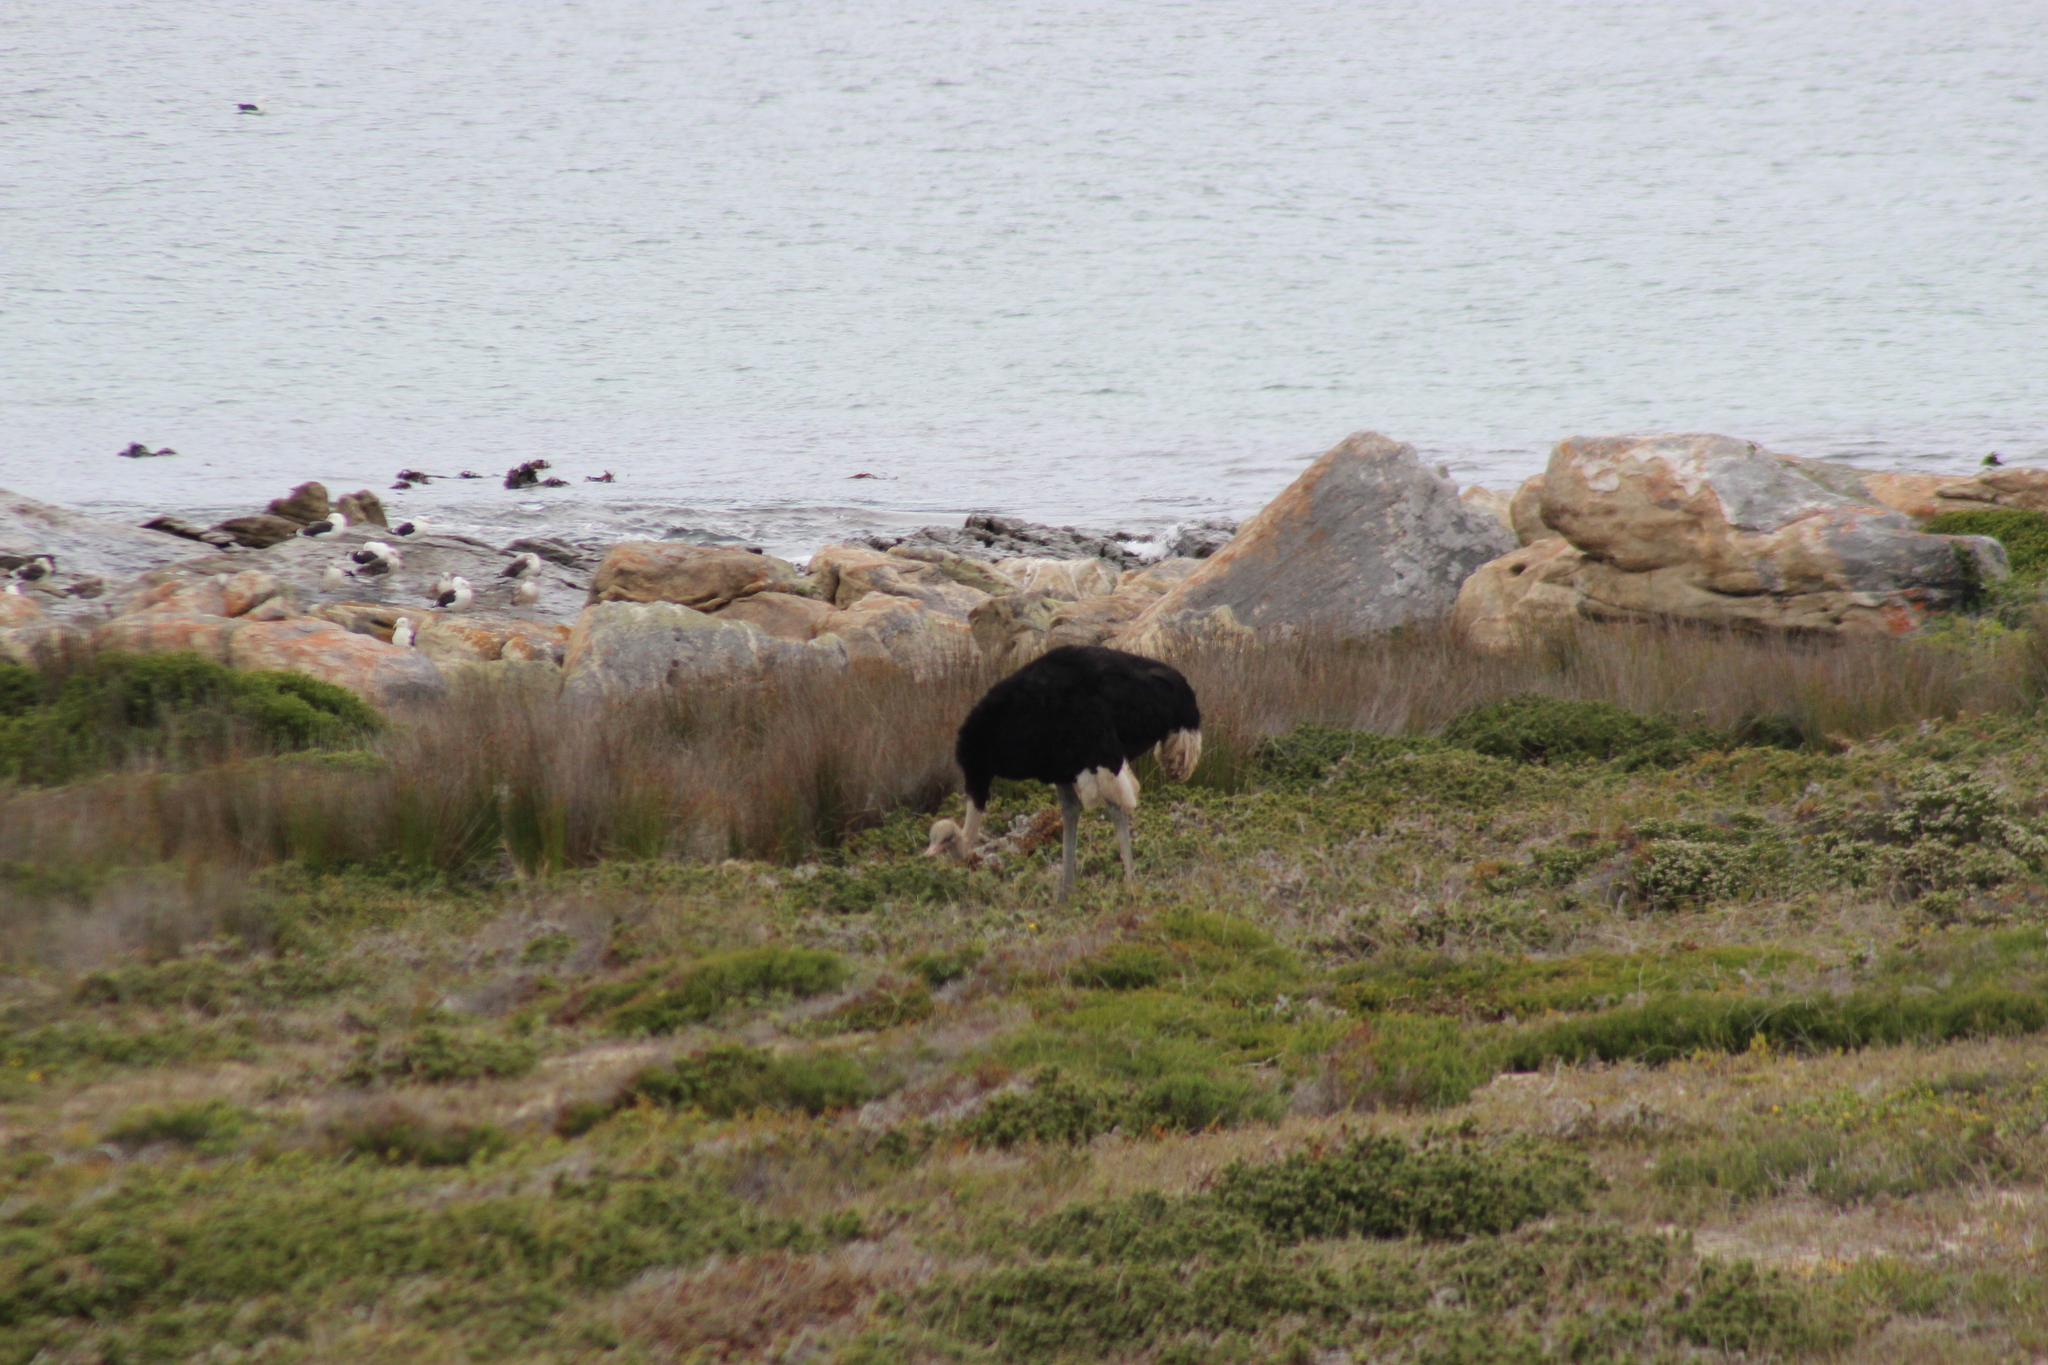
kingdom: Animalia
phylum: Chordata
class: Aves
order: Struthioniformes
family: Struthionidae
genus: Struthio
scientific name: Struthio camelus
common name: Common ostrich
